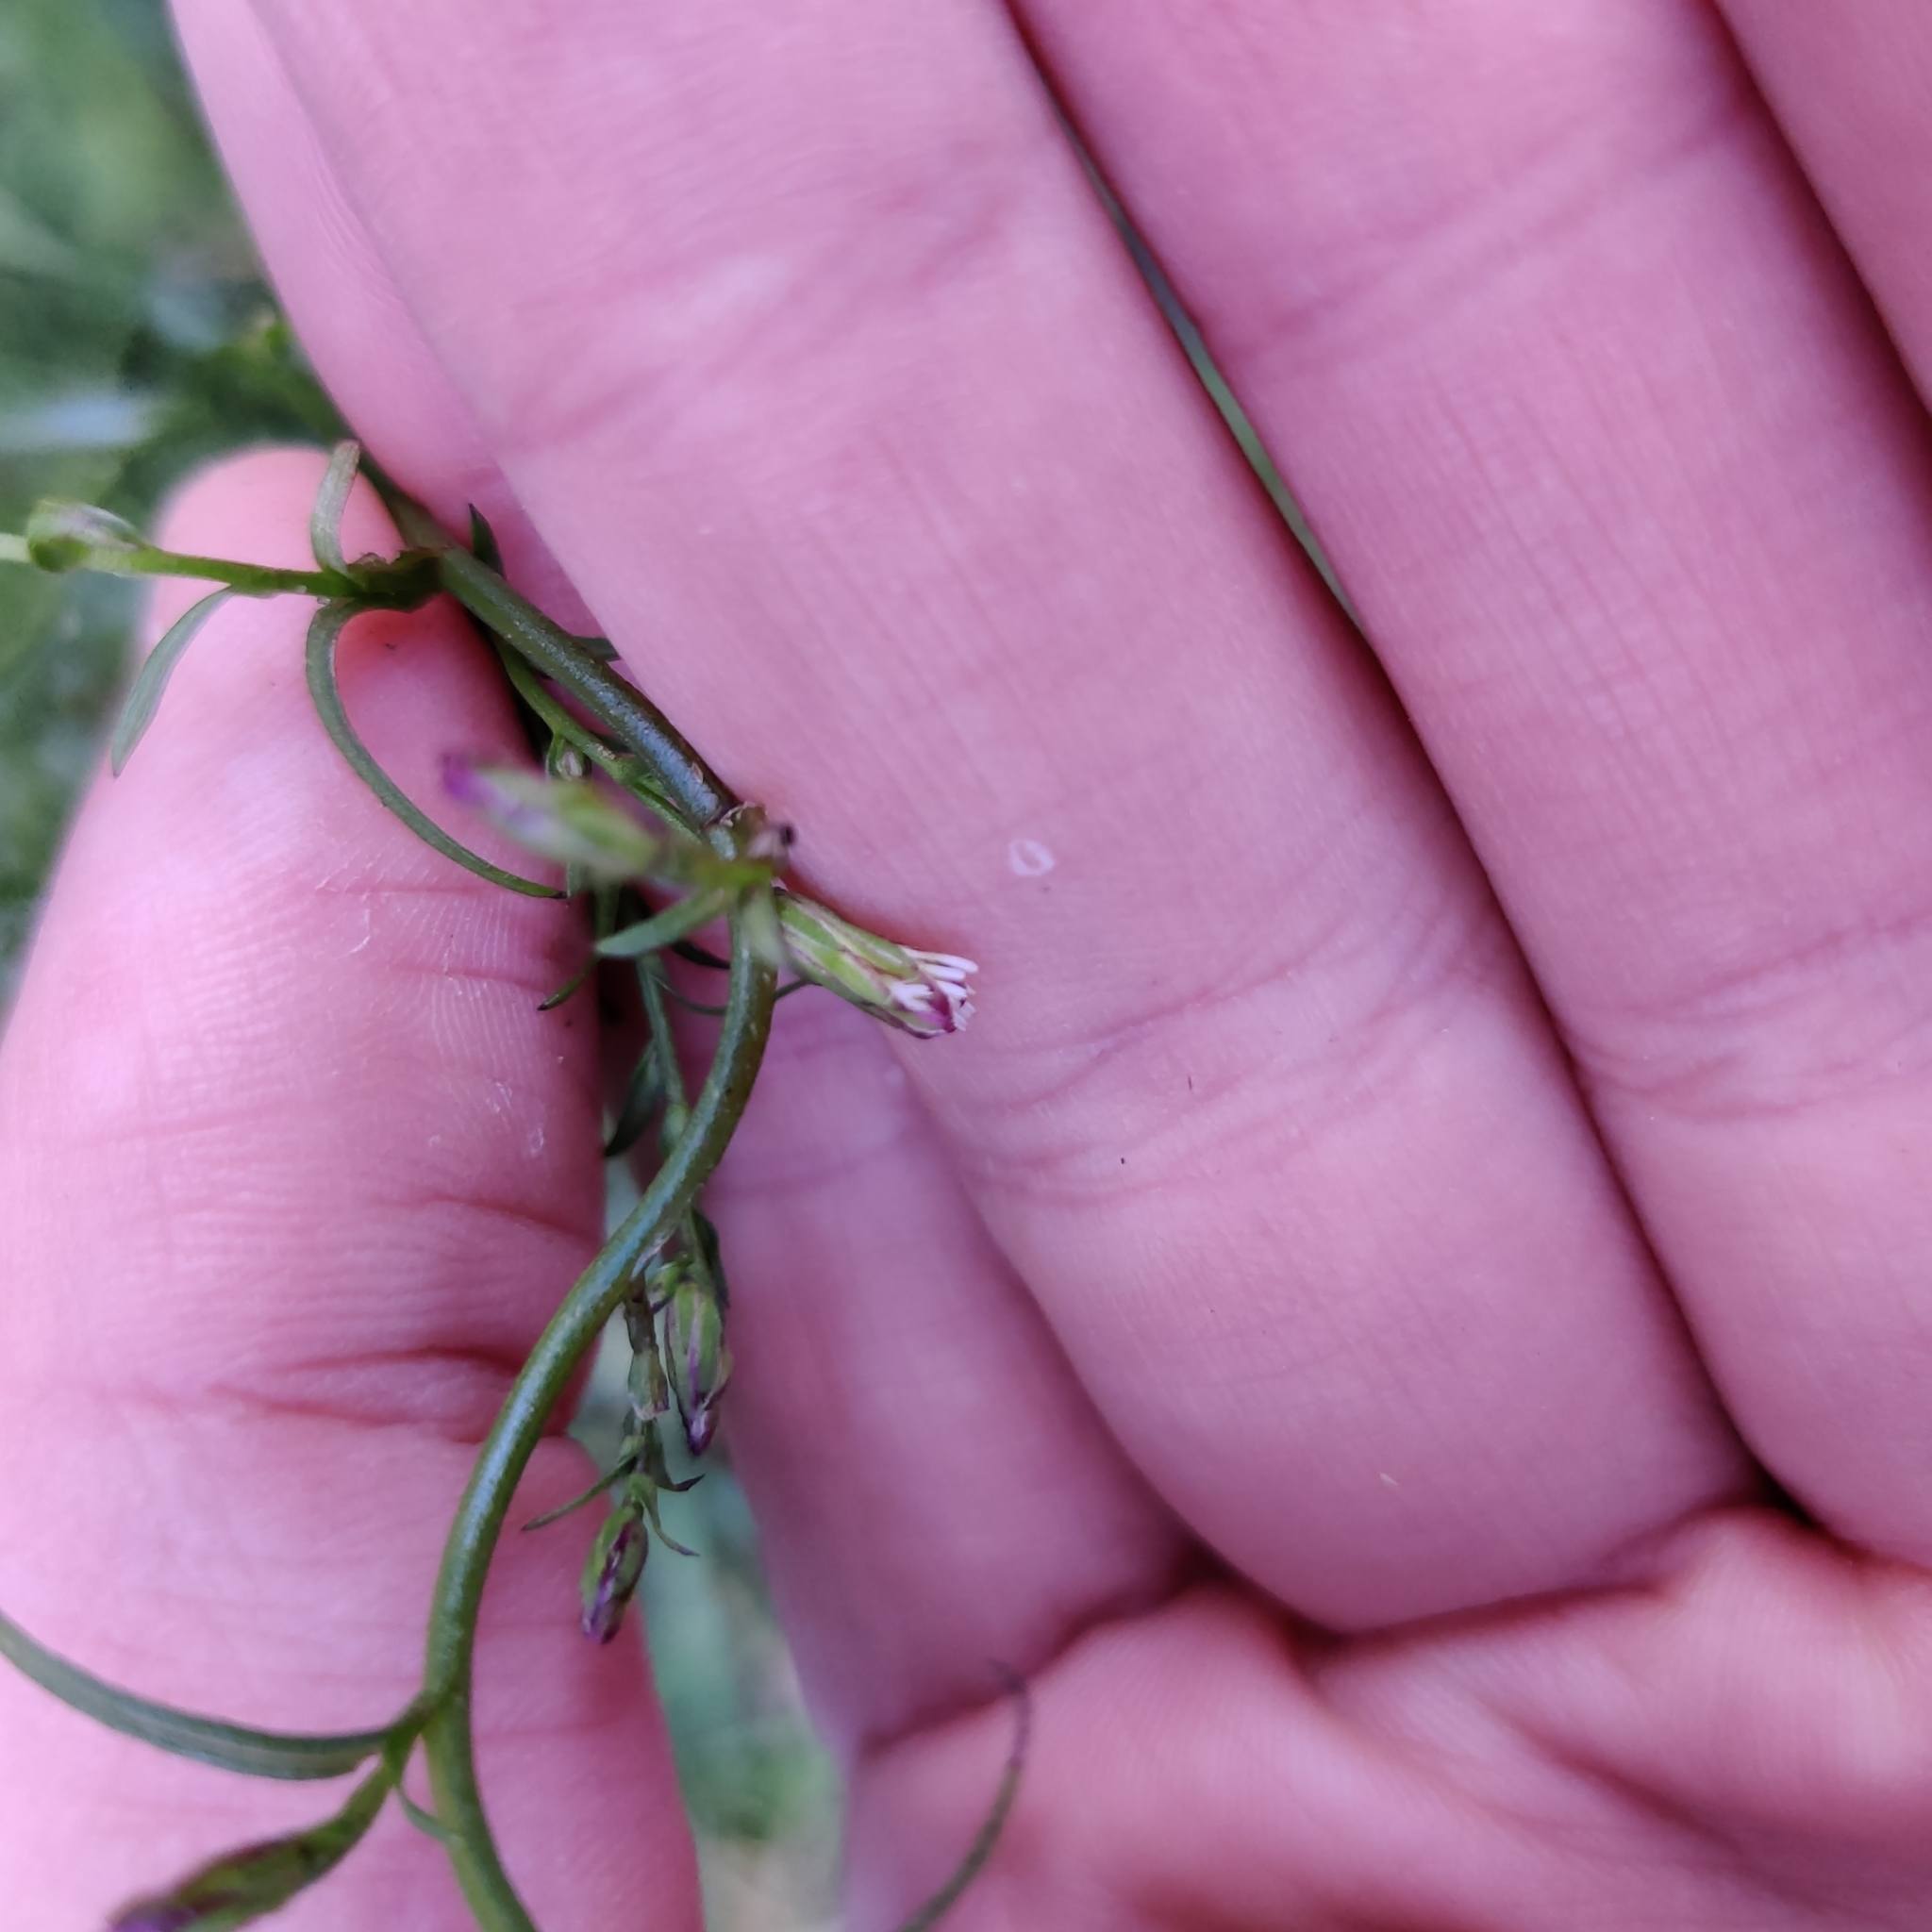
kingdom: Plantae
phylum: Tracheophyta
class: Magnoliopsida
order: Asterales
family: Asteraceae
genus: Symphyotrichum
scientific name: Symphyotrichum subulatum
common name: Annual saltmarsh aster
